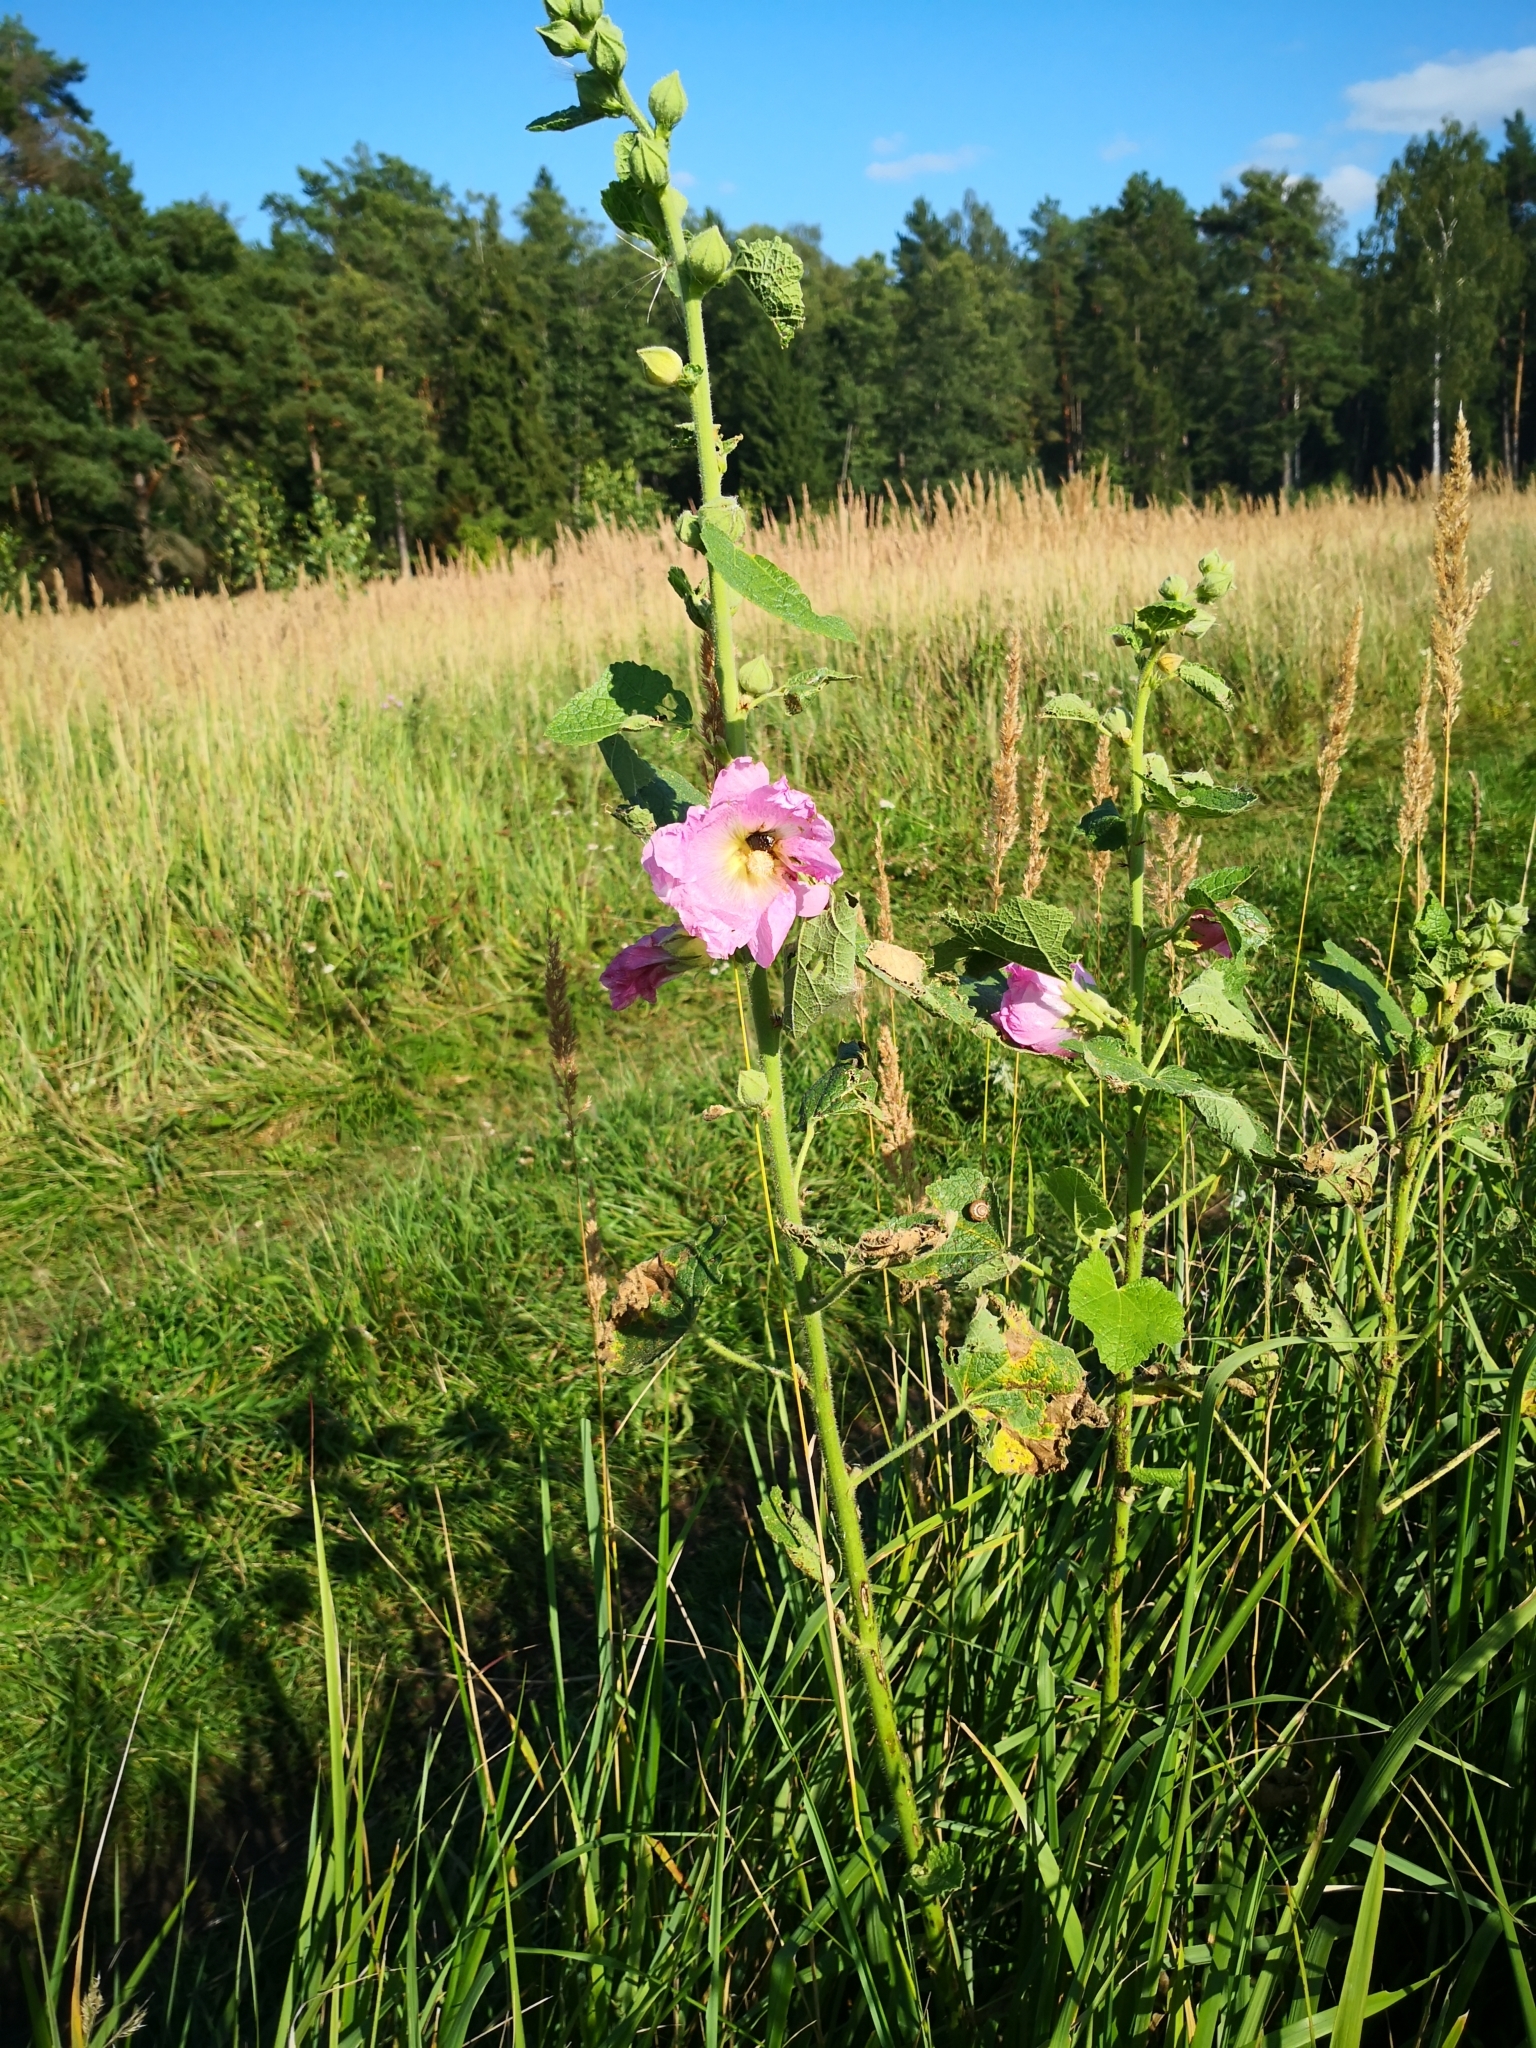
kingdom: Plantae
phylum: Tracheophyta
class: Magnoliopsida
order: Malvales
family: Malvaceae
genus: Alcea
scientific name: Alcea rosea
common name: Hollyhock
